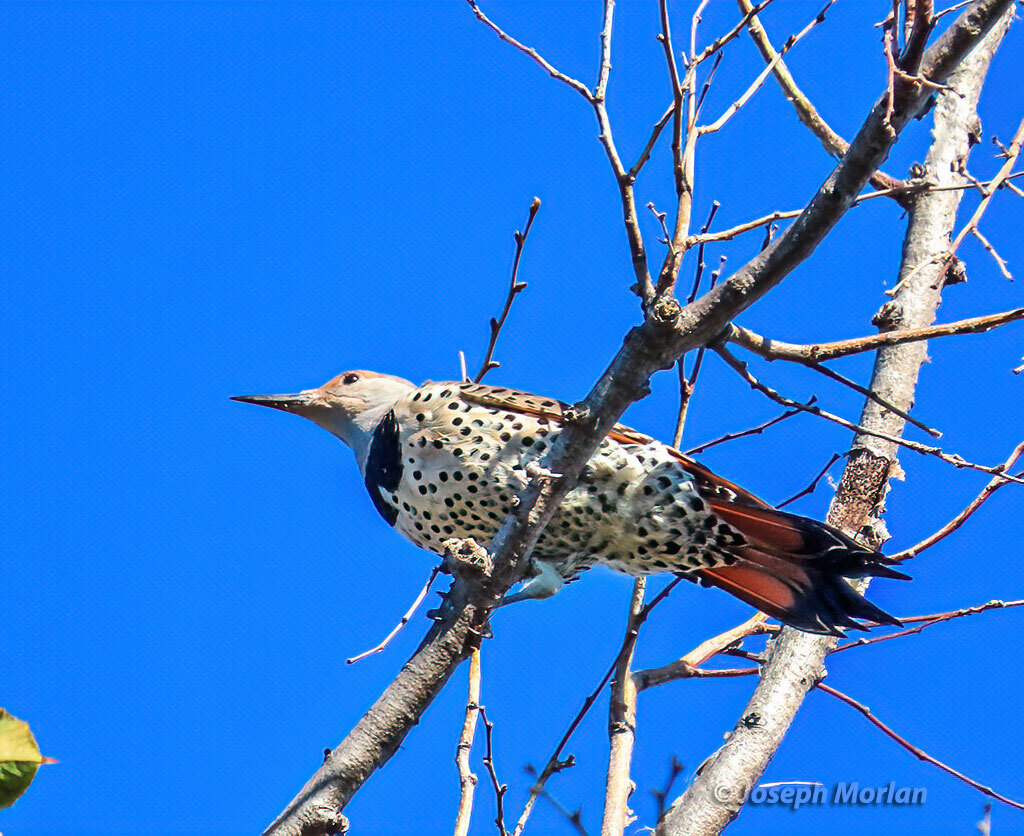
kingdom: Animalia
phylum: Chordata
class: Aves
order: Piciformes
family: Picidae
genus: Colaptes
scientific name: Colaptes auratus
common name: Northern flicker
